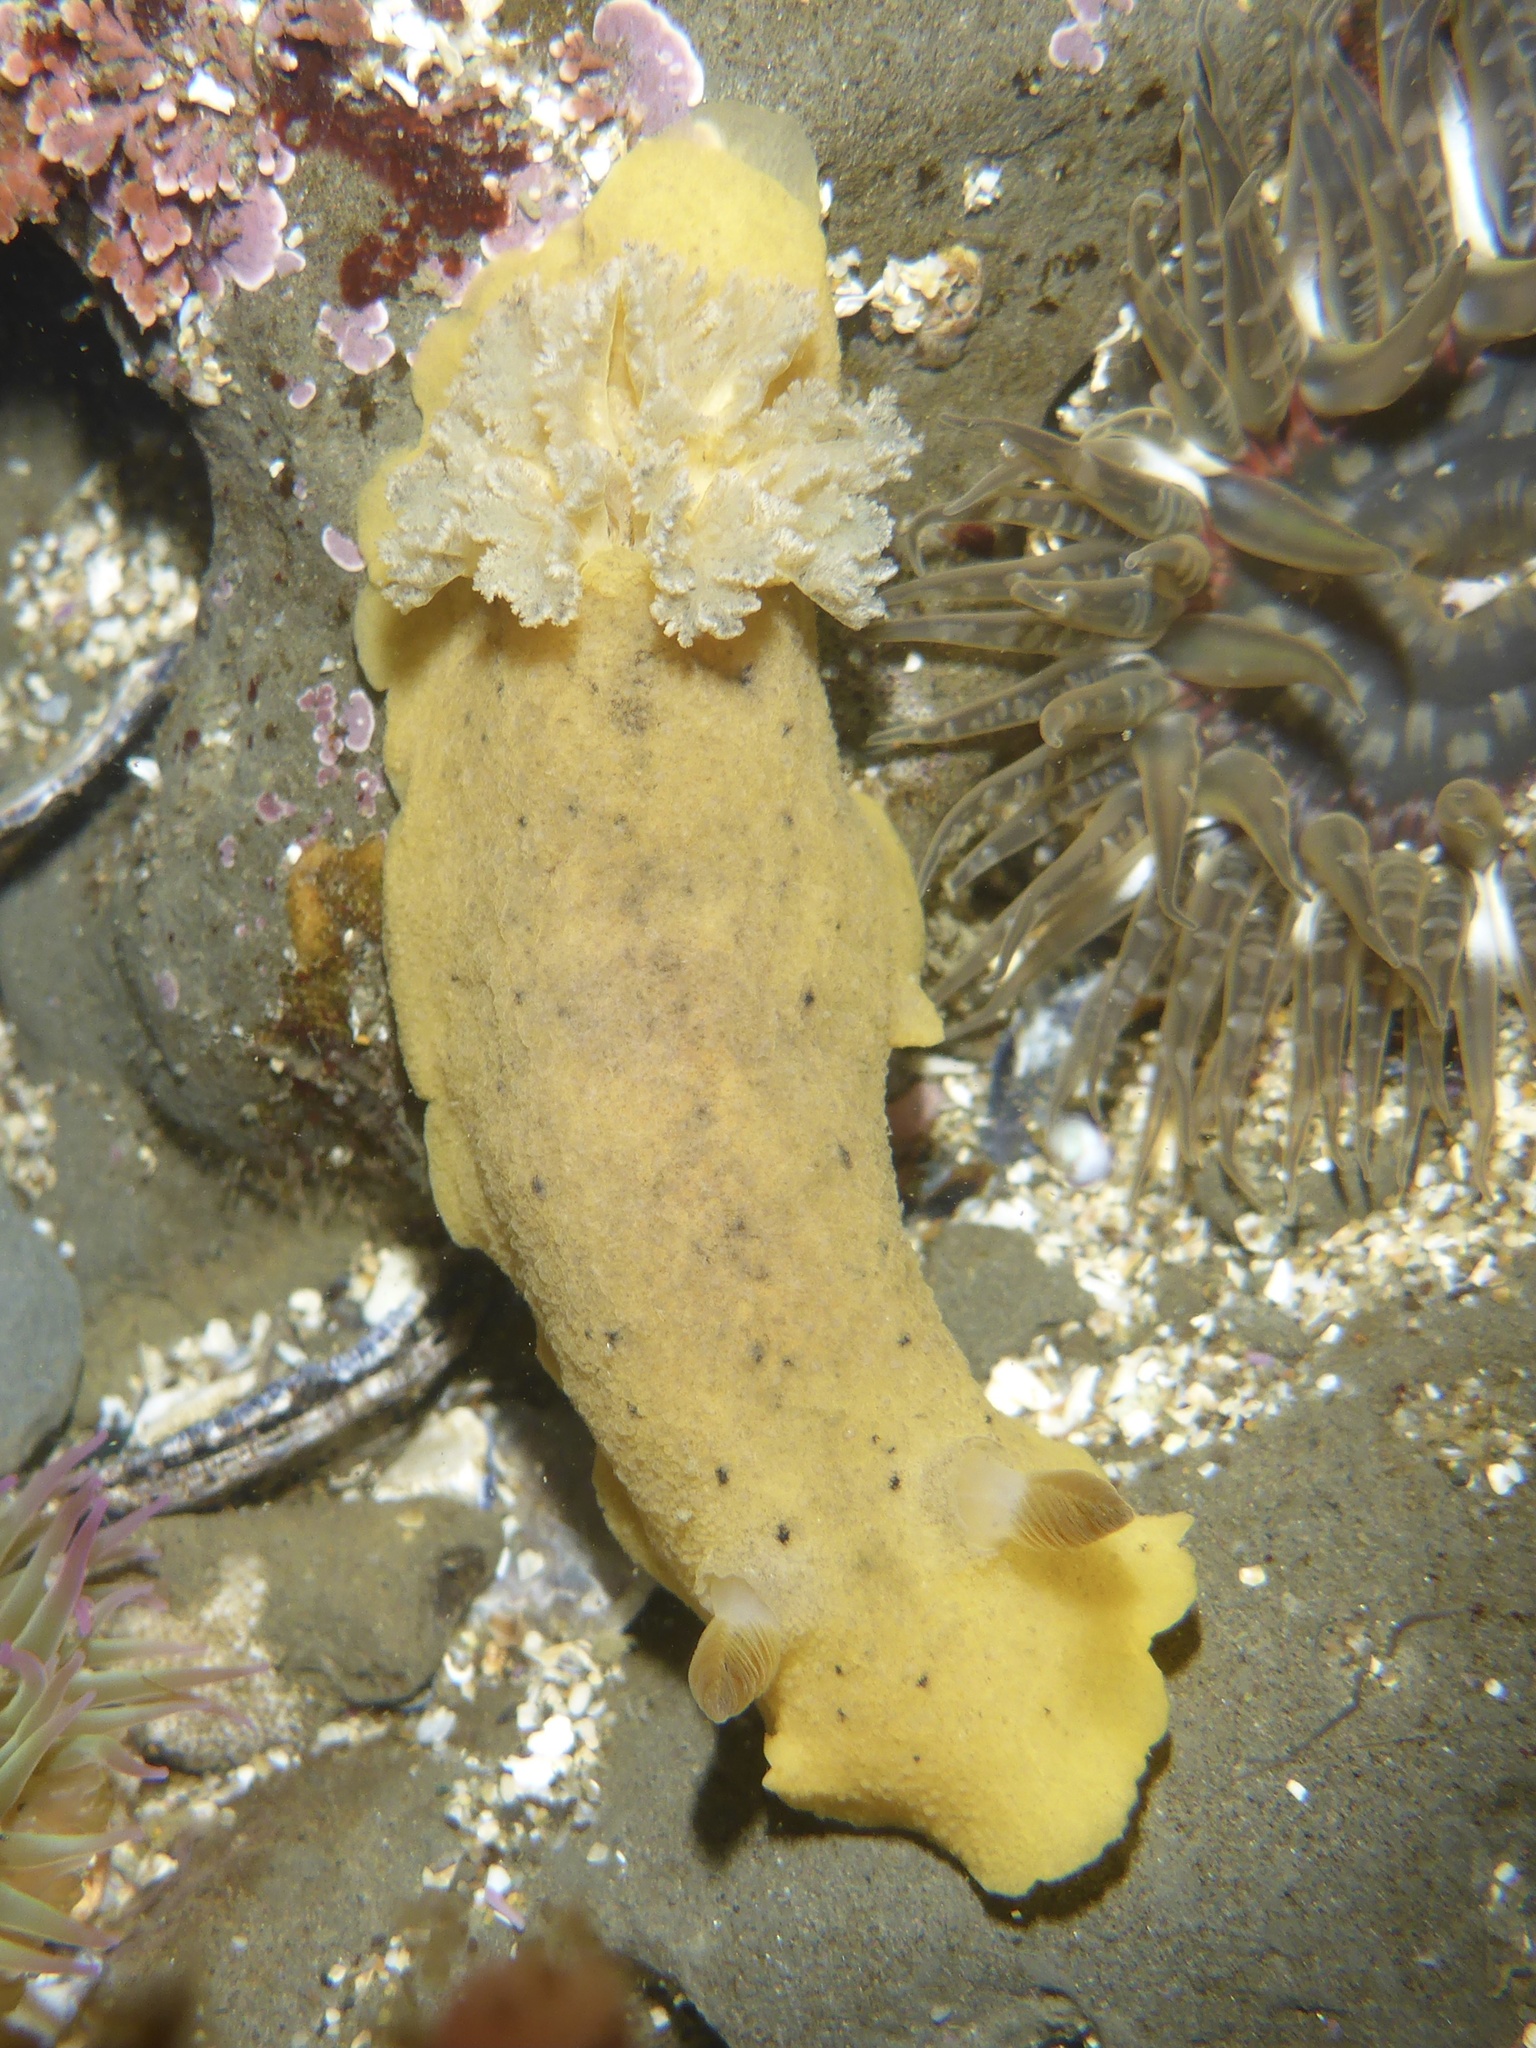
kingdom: Animalia
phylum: Mollusca
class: Gastropoda
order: Nudibranchia
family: Discodorididae
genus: Geitodoris
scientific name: Geitodoris heathi
